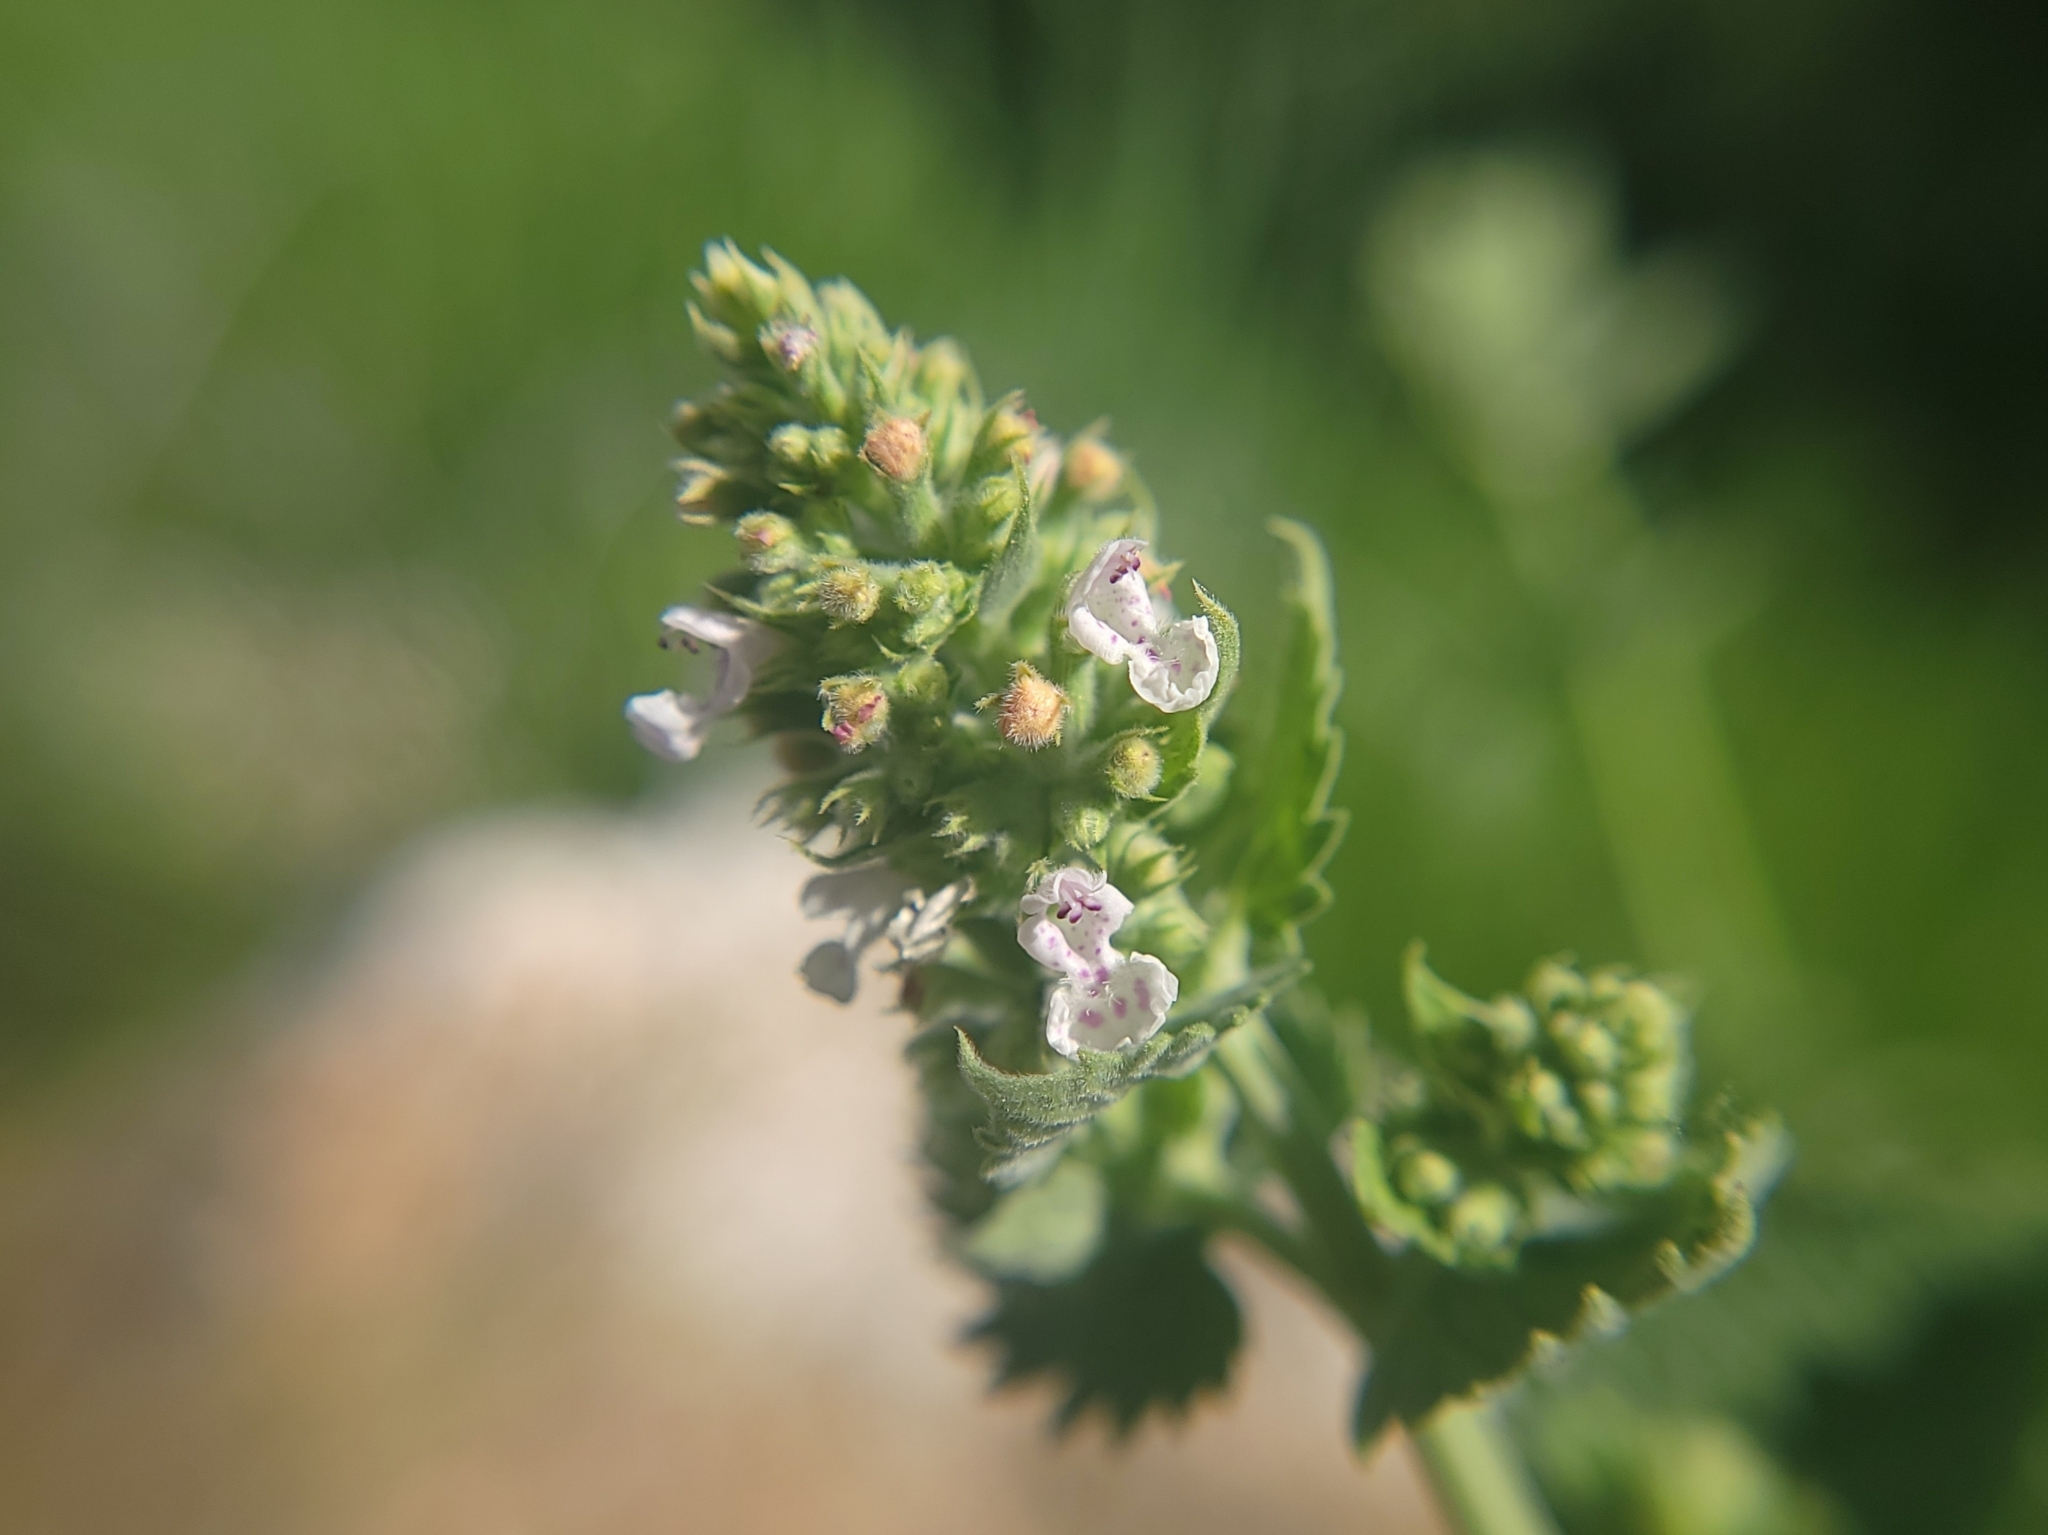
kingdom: Plantae
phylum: Tracheophyta
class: Magnoliopsida
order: Lamiales
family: Lamiaceae
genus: Nepeta
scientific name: Nepeta cataria
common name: Catnip
